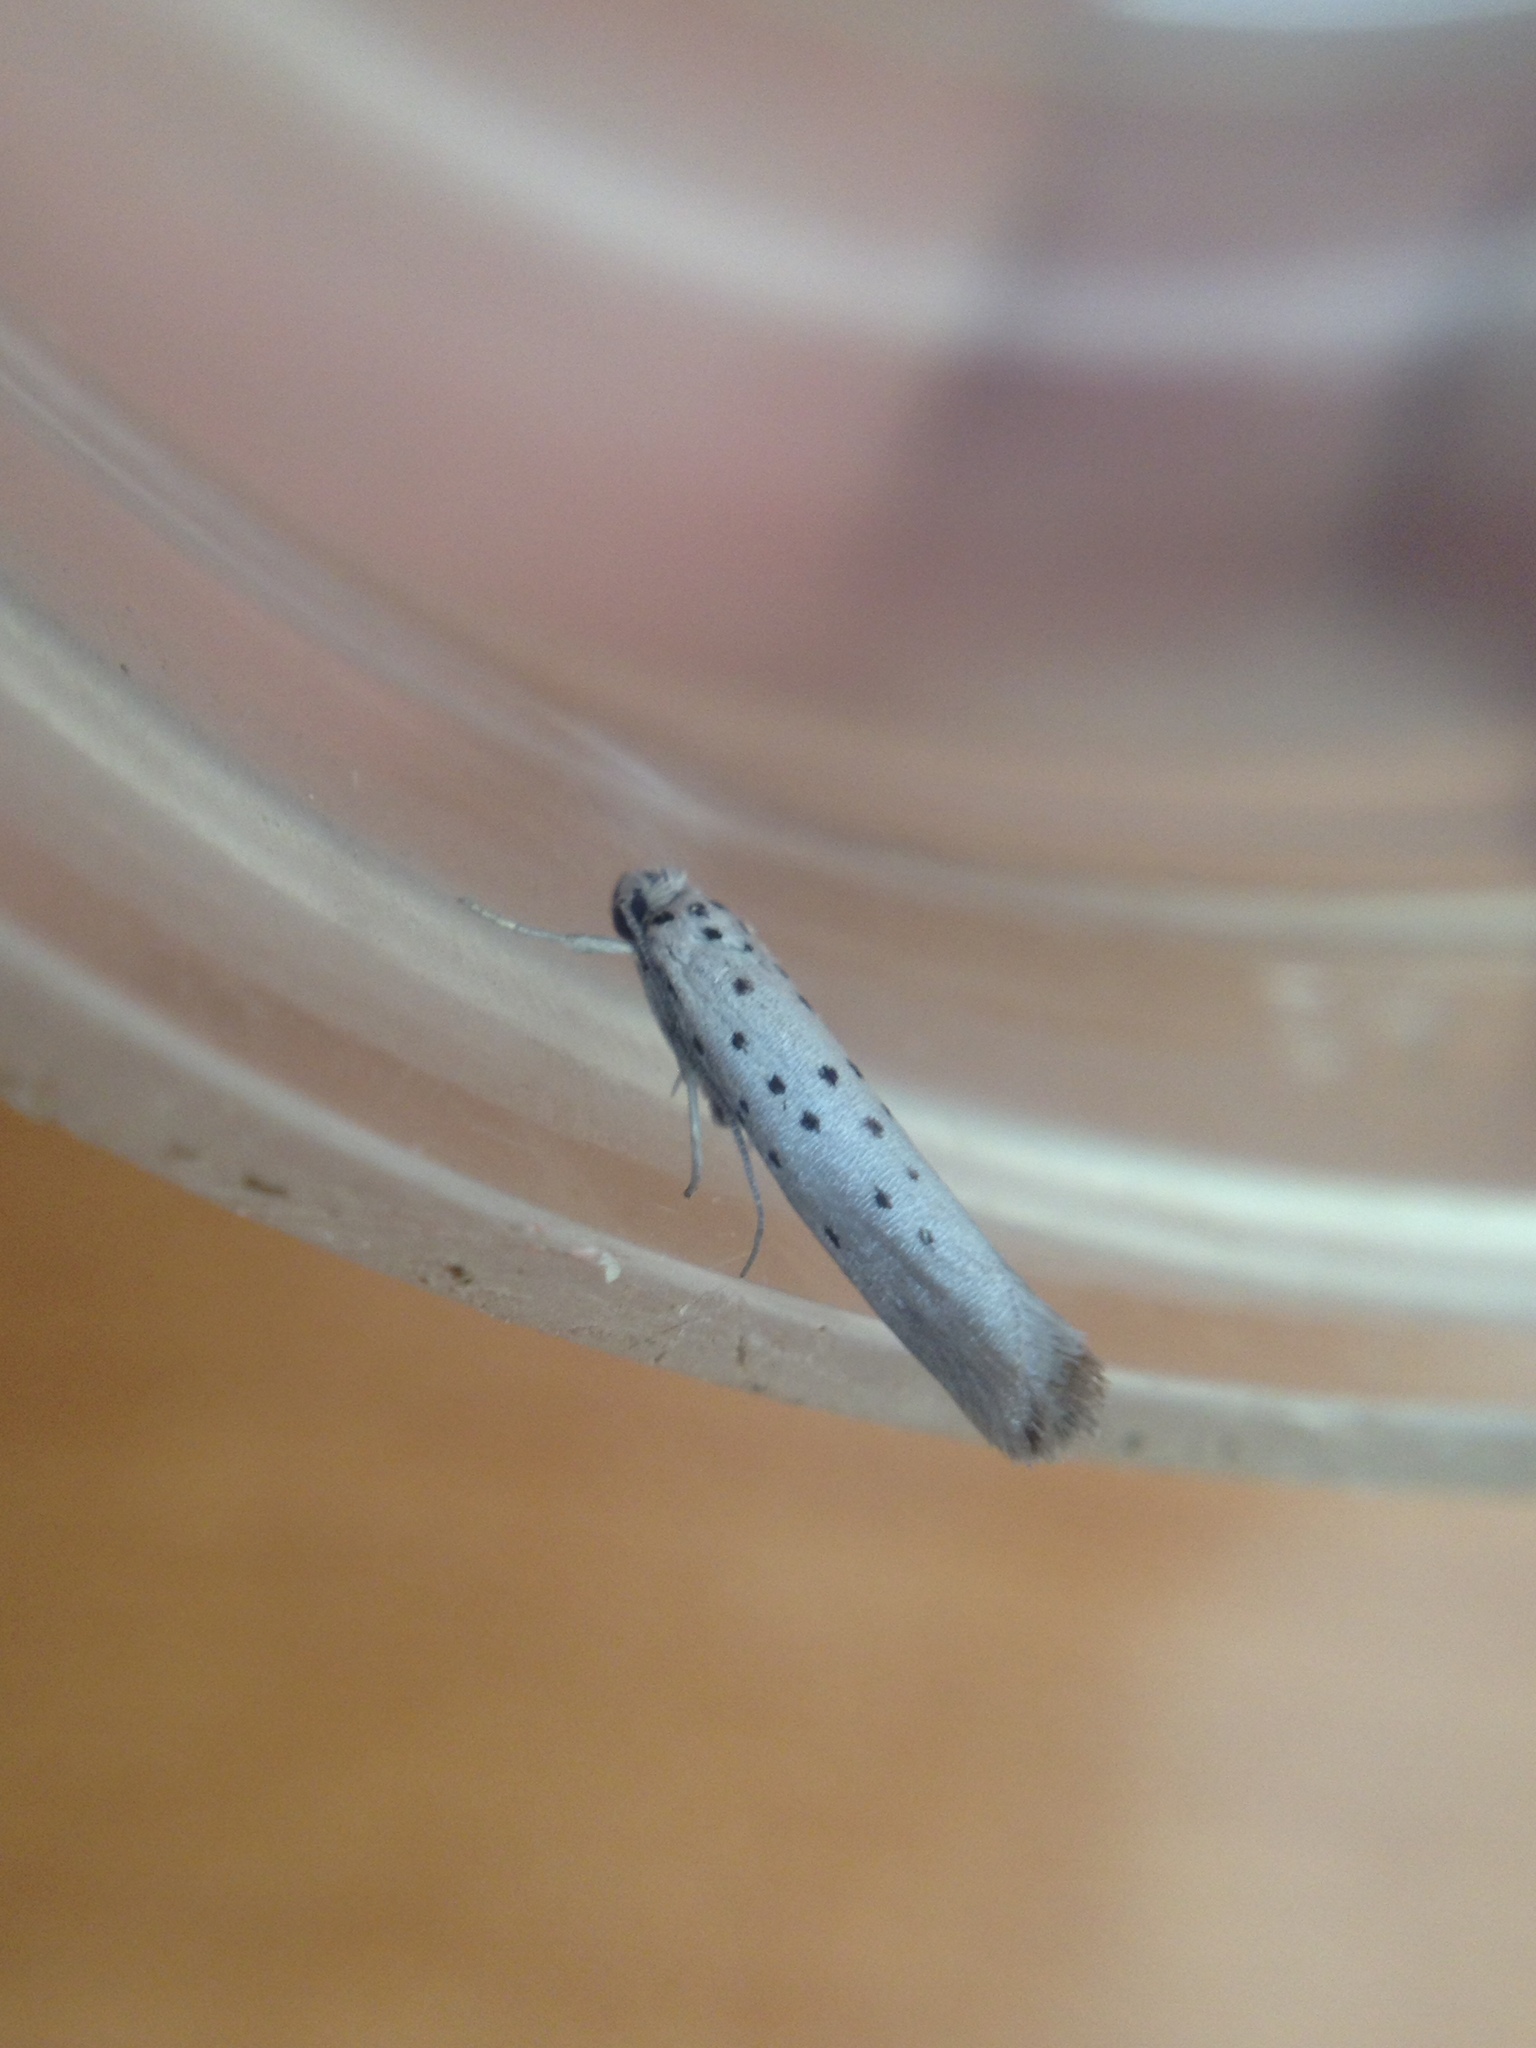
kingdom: Animalia
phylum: Arthropoda
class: Insecta
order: Lepidoptera
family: Yponomeutidae
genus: Yponomeuta
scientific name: Yponomeuta vigintipunctata
